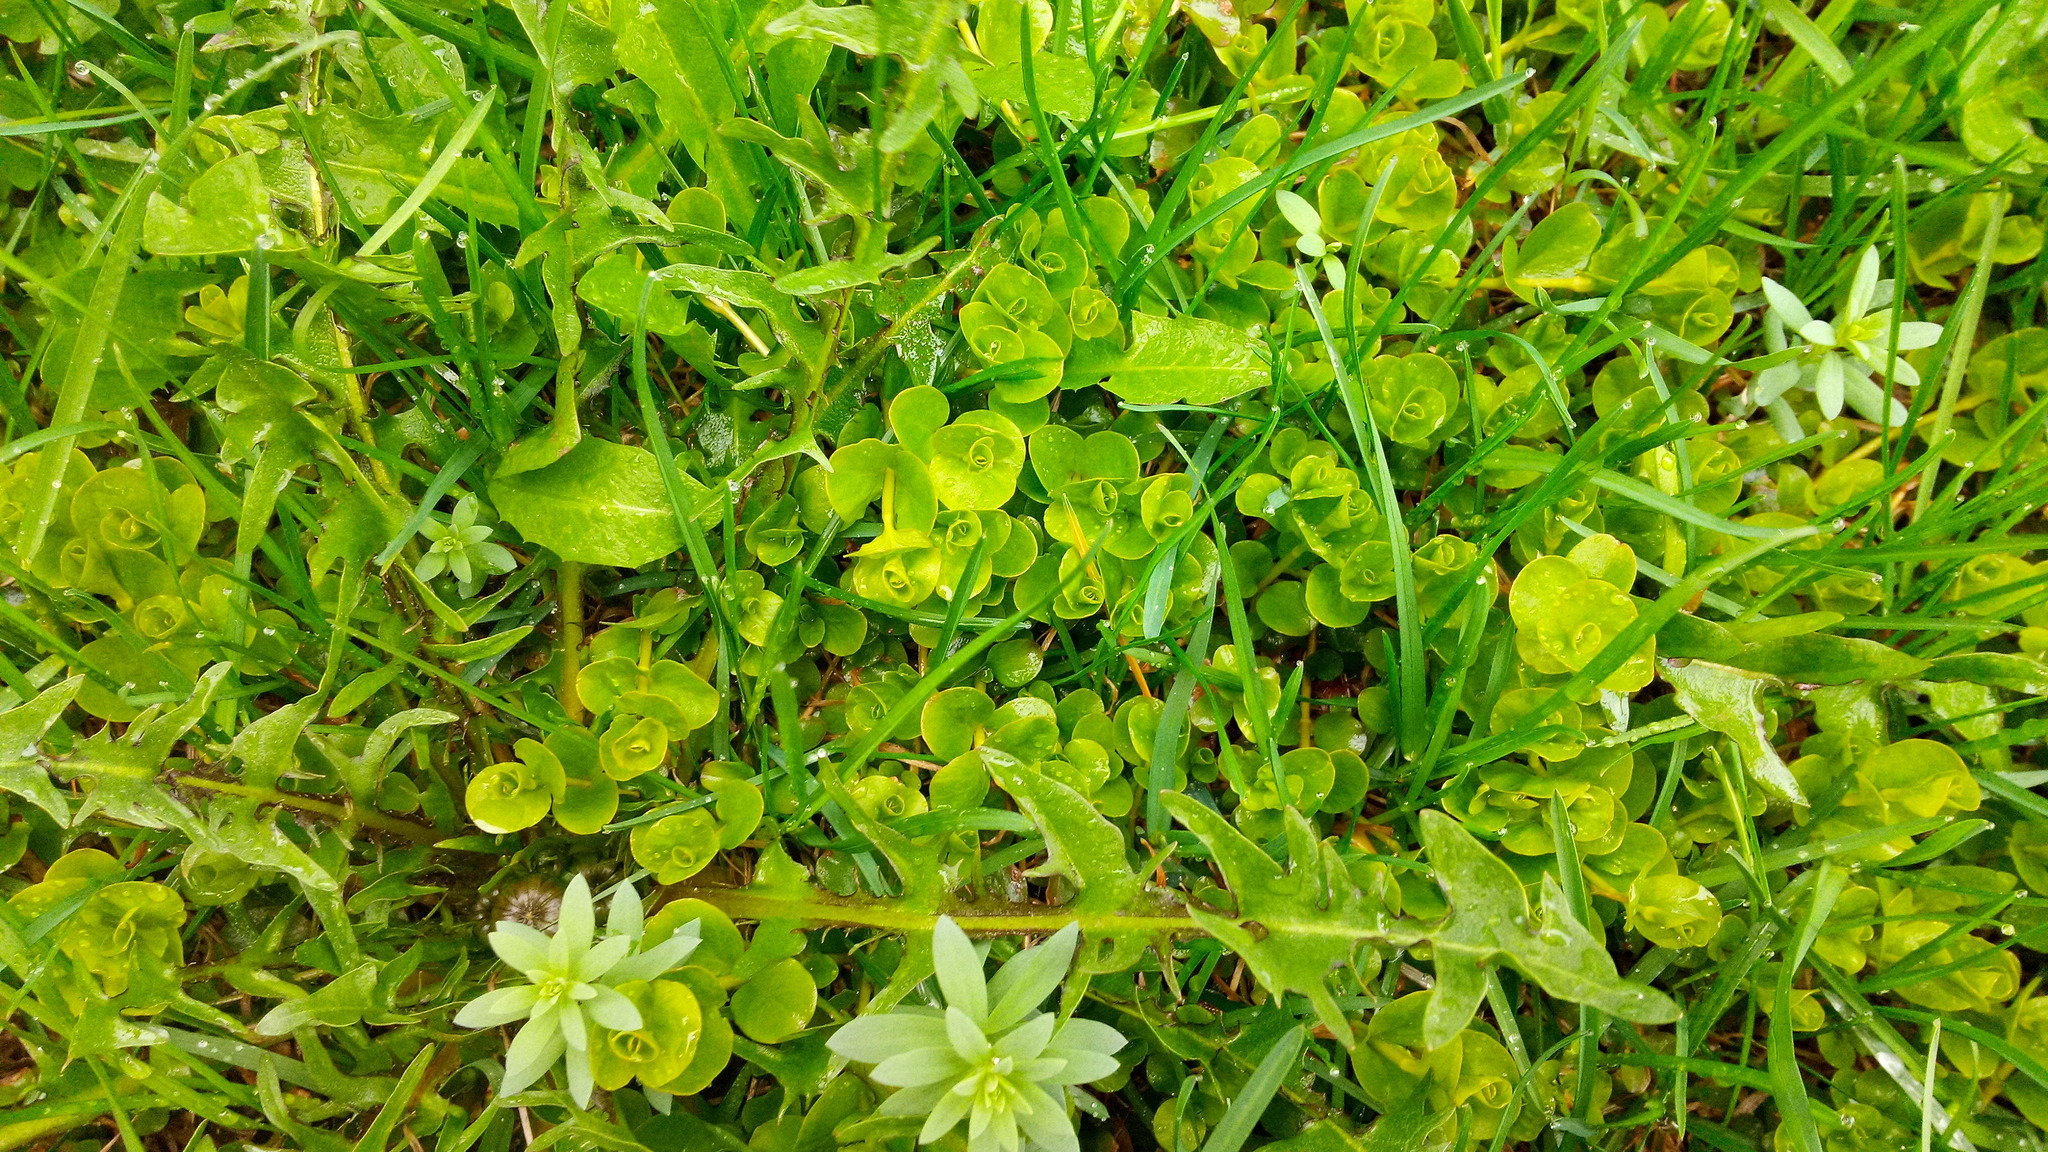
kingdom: Plantae
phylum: Tracheophyta
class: Magnoliopsida
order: Ericales
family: Primulaceae
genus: Lysimachia
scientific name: Lysimachia nummularia
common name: Moneywort
